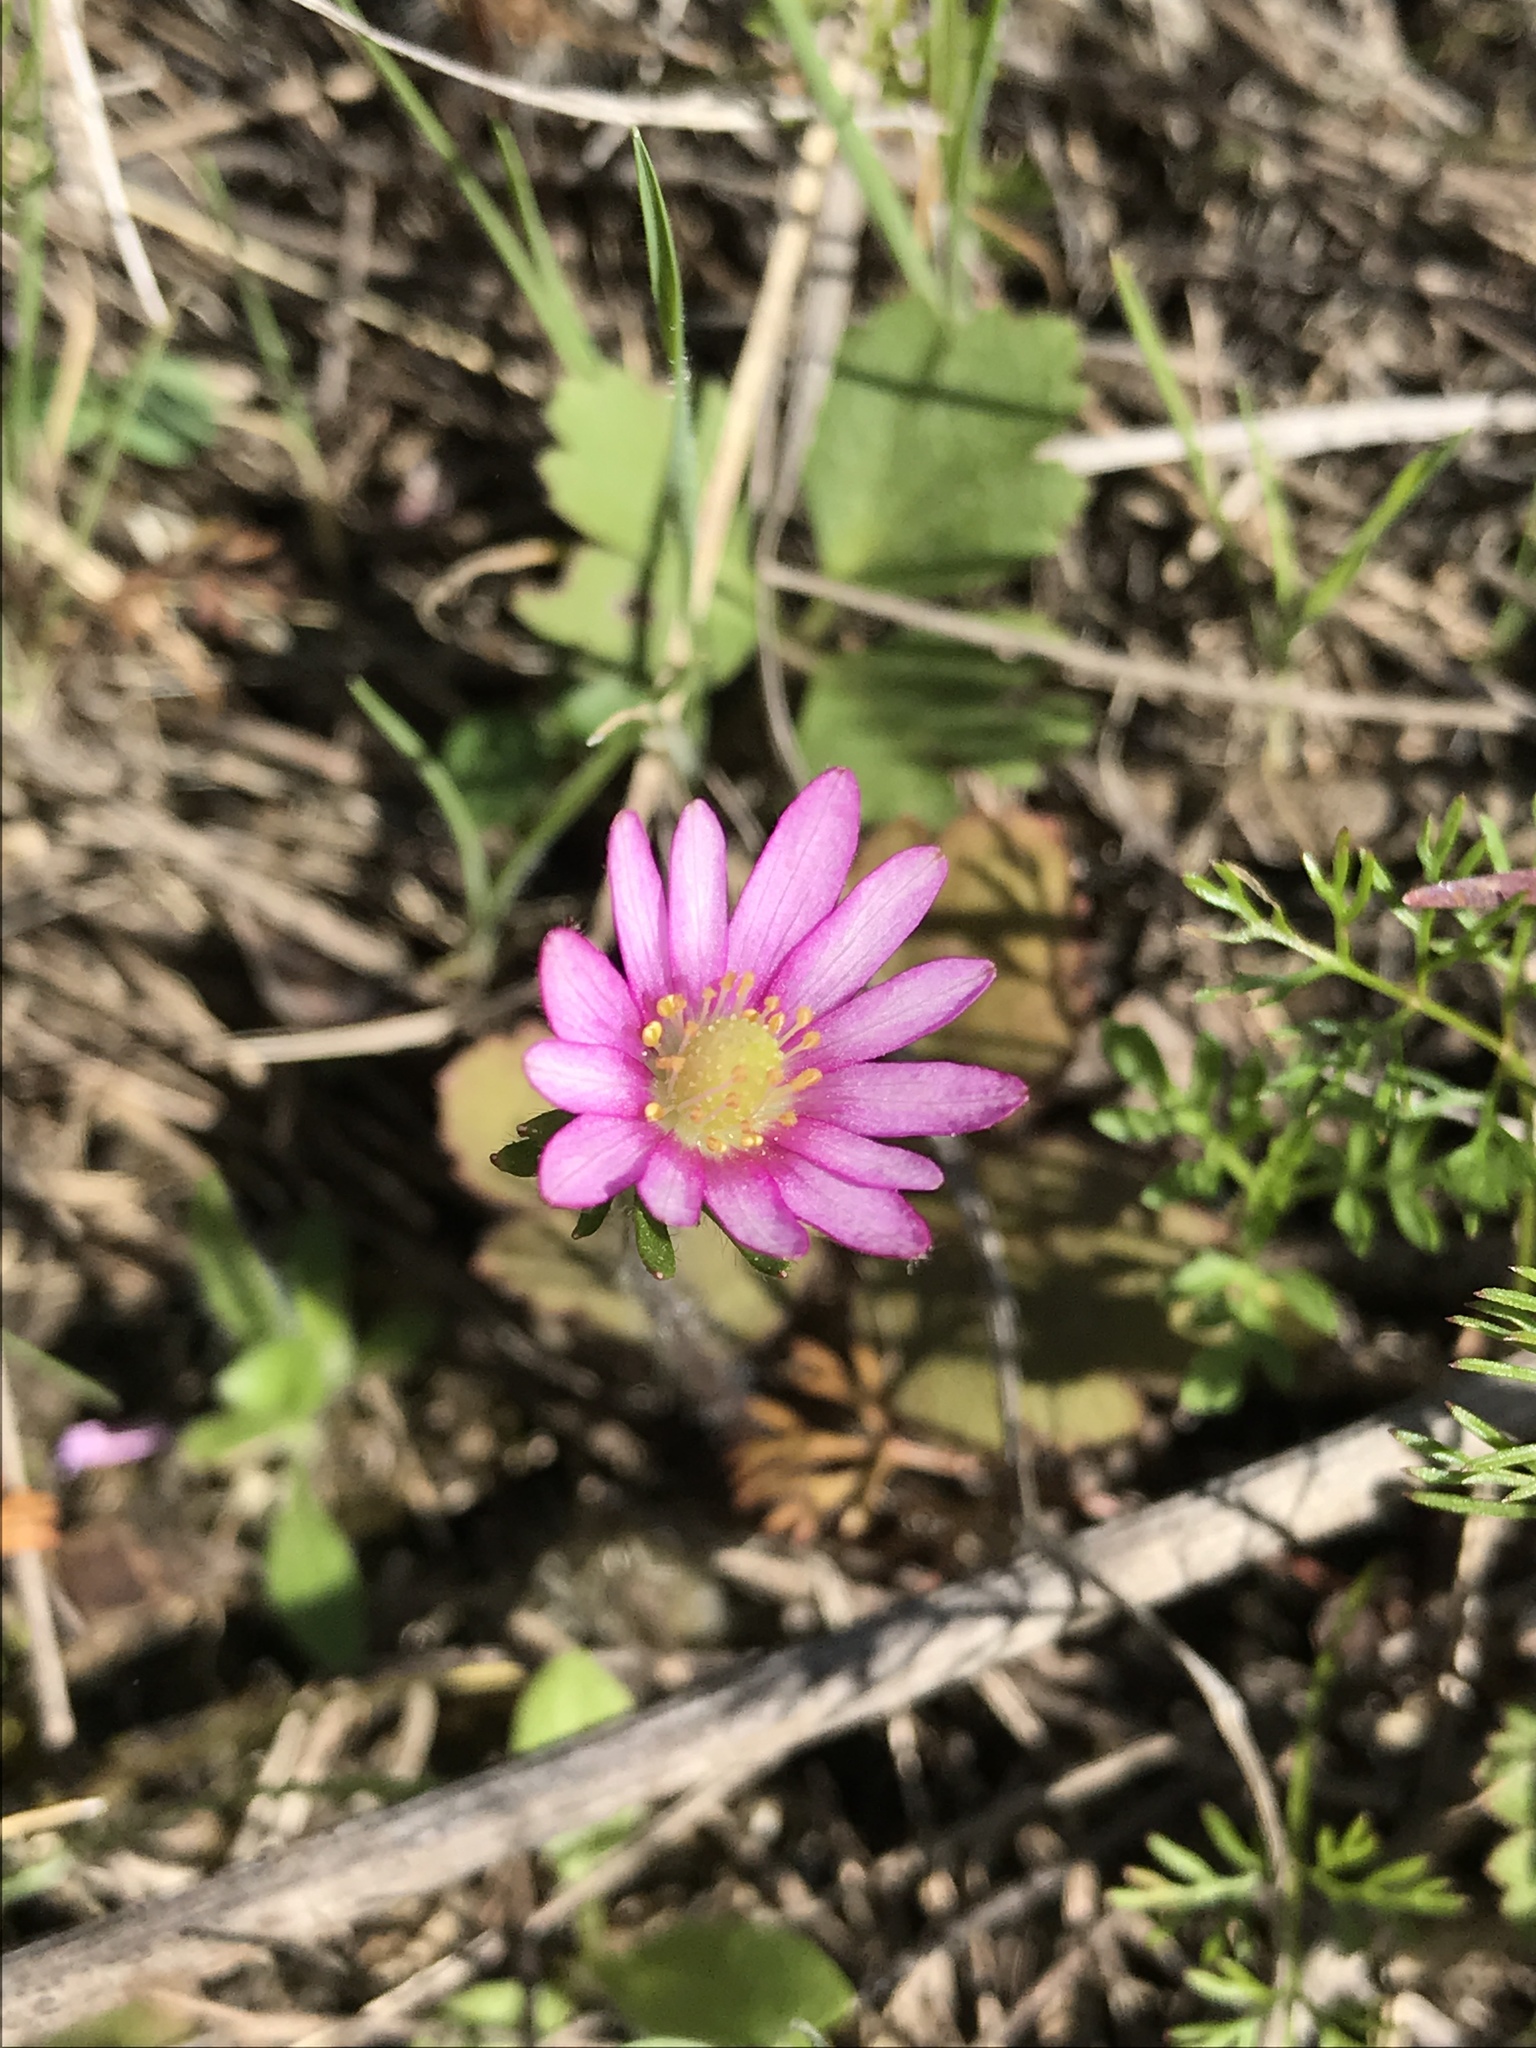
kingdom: Plantae
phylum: Tracheophyta
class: Magnoliopsida
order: Ranunculales
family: Ranunculaceae
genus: Anemone
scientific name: Anemone berlandieri
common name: Ten-petal anemone
